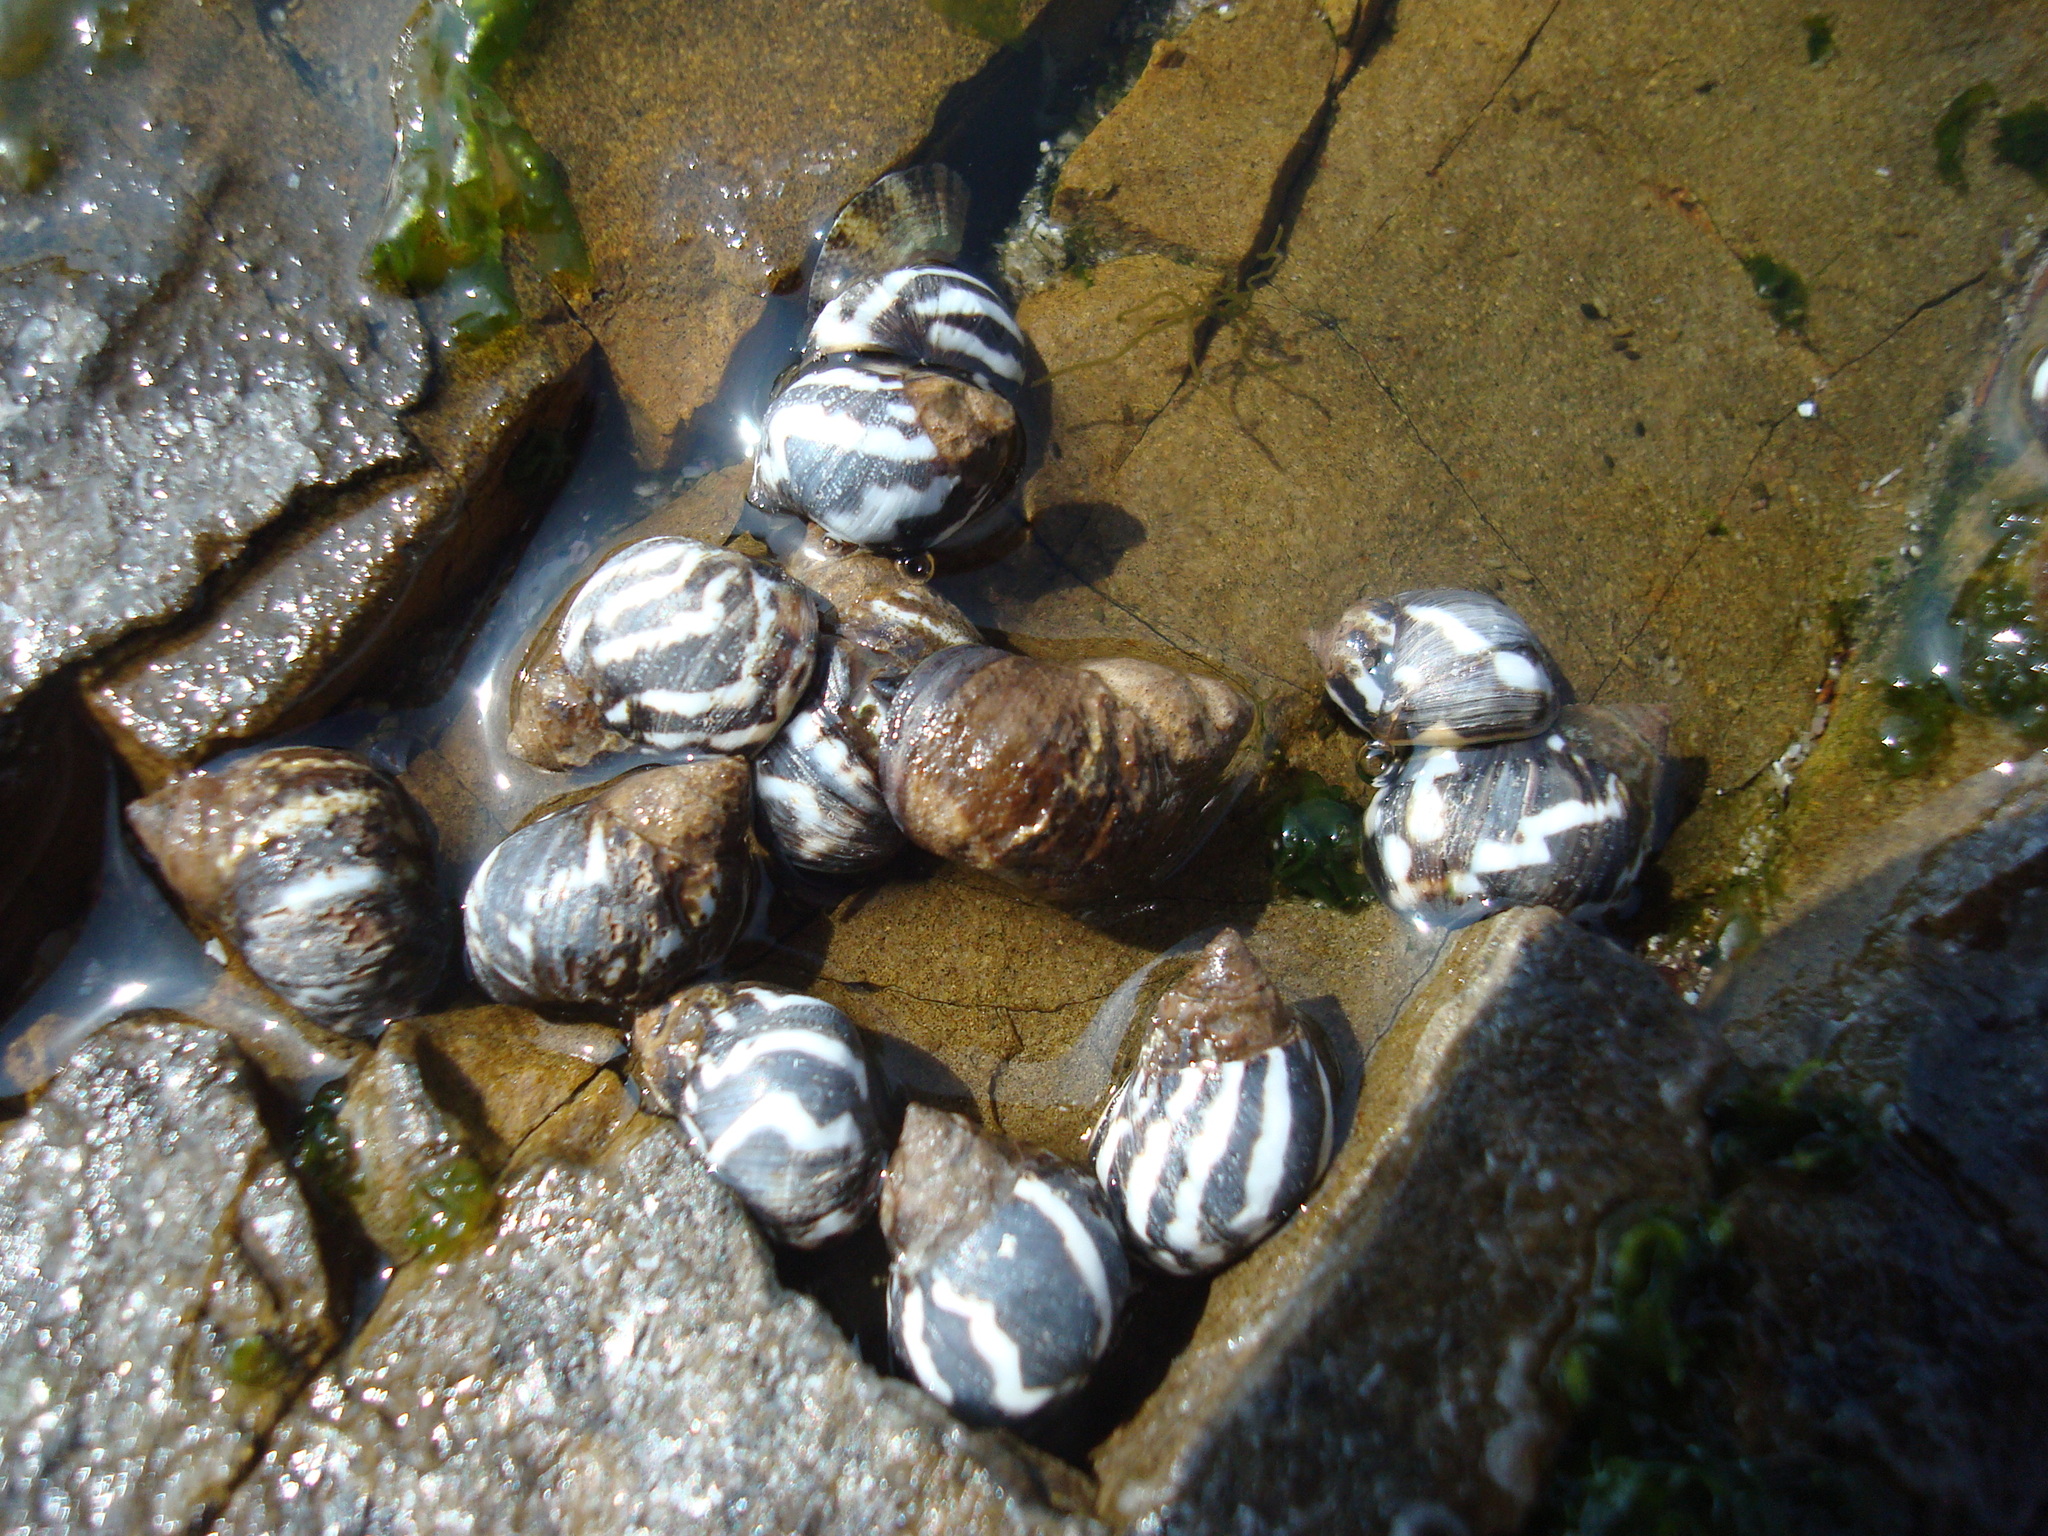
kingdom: Animalia
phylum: Mollusca
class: Gastropoda
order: Littorinimorpha
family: Littorinidae
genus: Echinolittorina
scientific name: Echinolittorina peruviana
